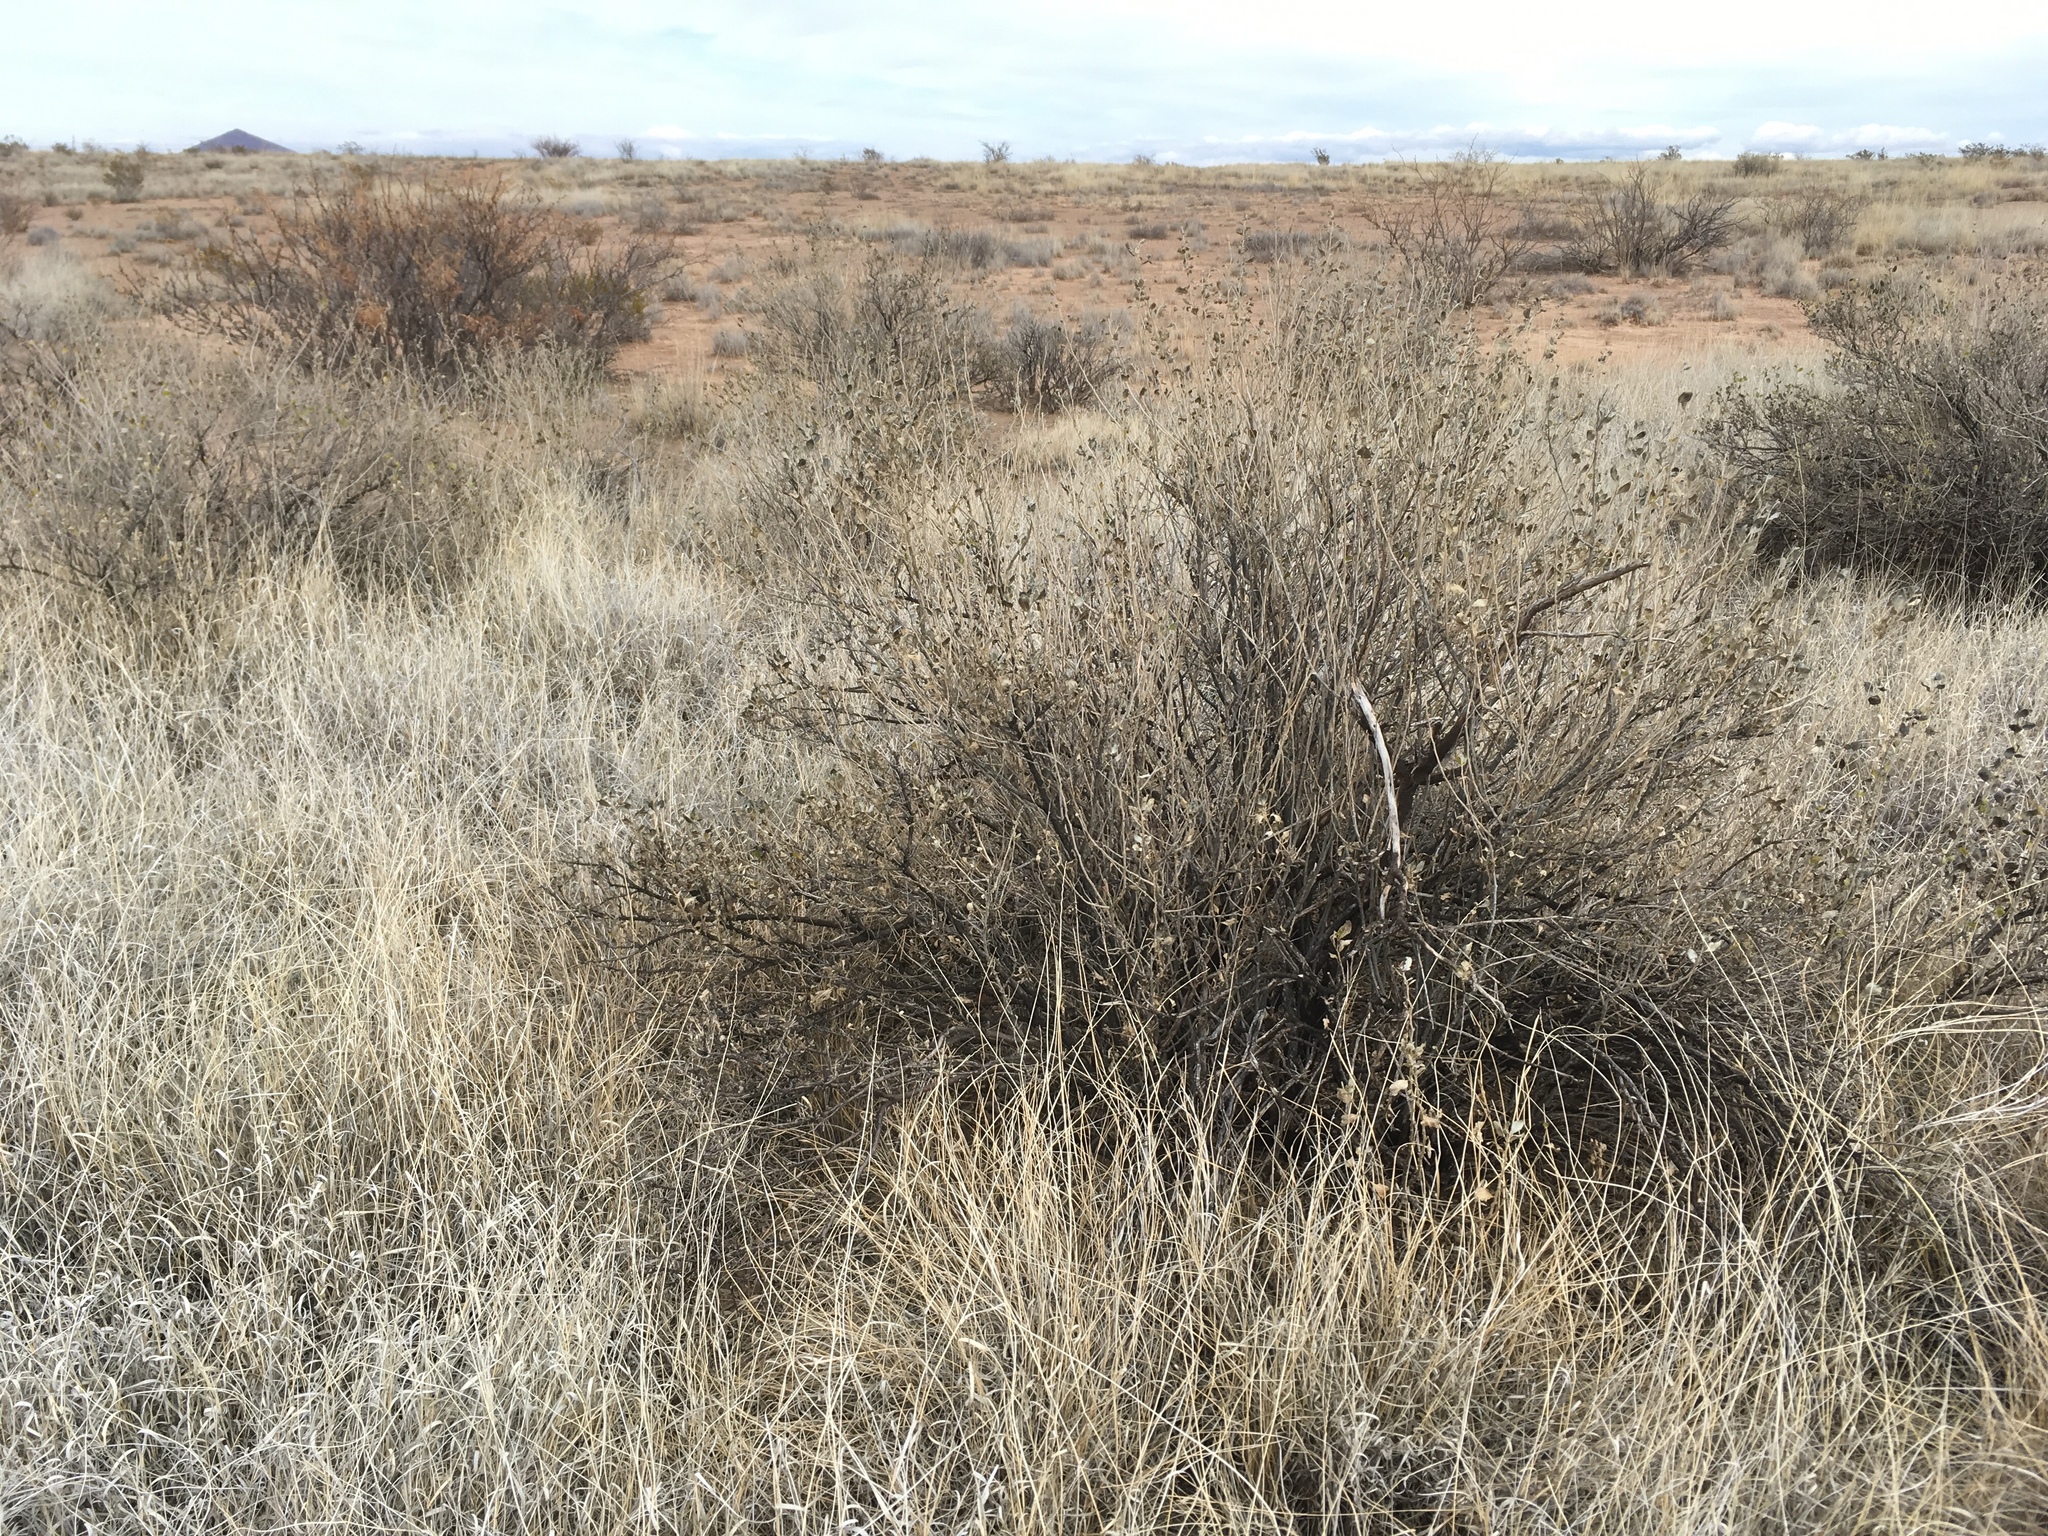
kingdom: Plantae
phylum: Tracheophyta
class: Magnoliopsida
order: Asterales
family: Asteraceae
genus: Flourensia
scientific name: Flourensia cernua
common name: Varnishbush
